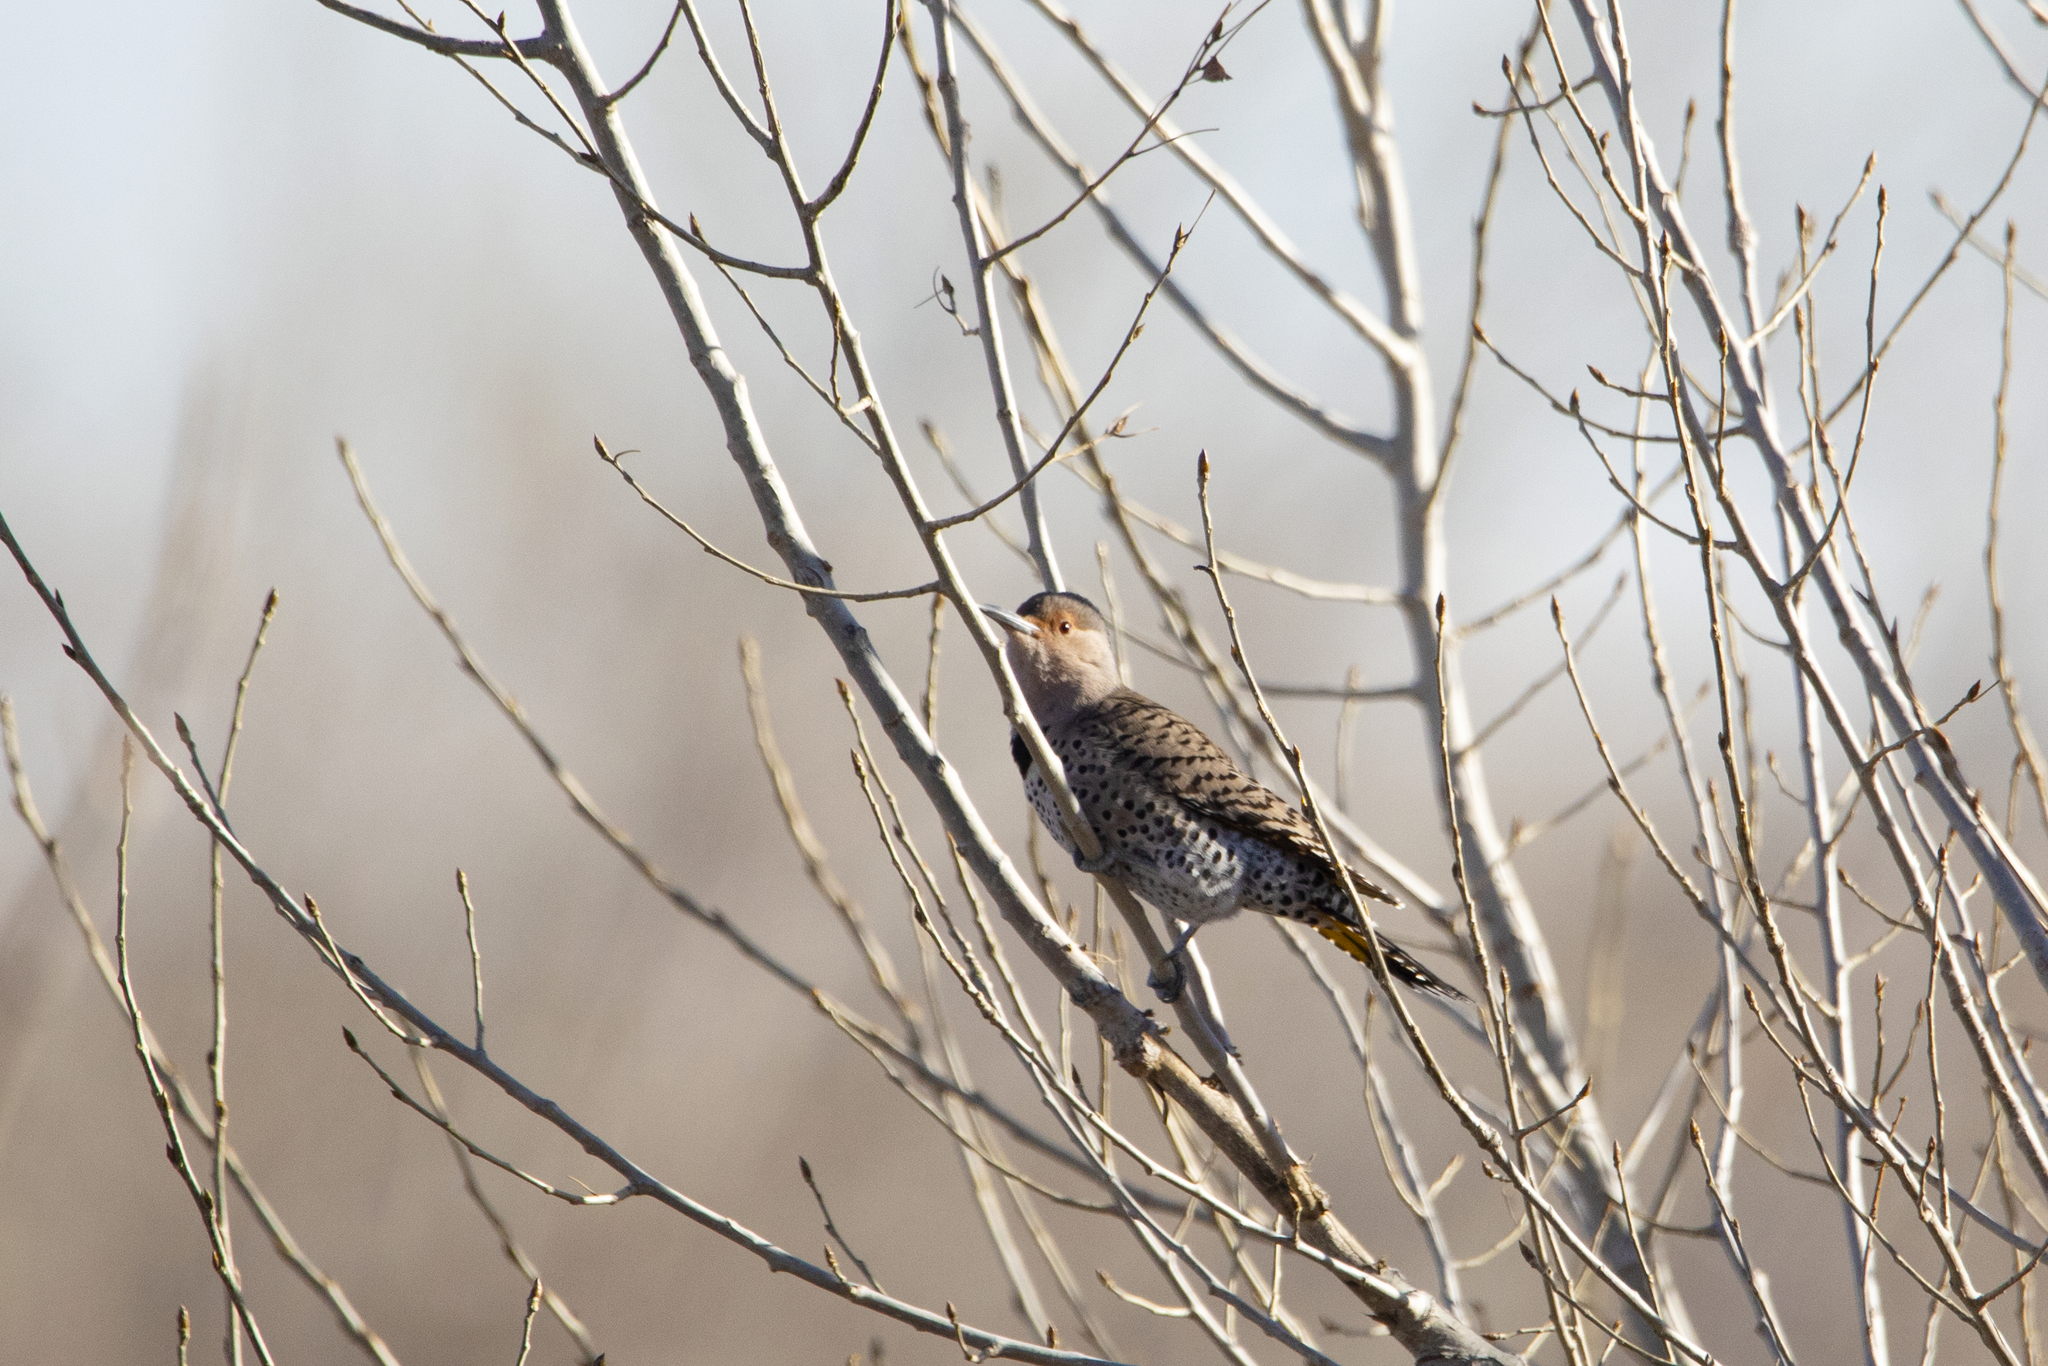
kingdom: Animalia
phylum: Chordata
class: Aves
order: Piciformes
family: Picidae
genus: Colaptes
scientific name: Colaptes auratus
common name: Northern flicker
